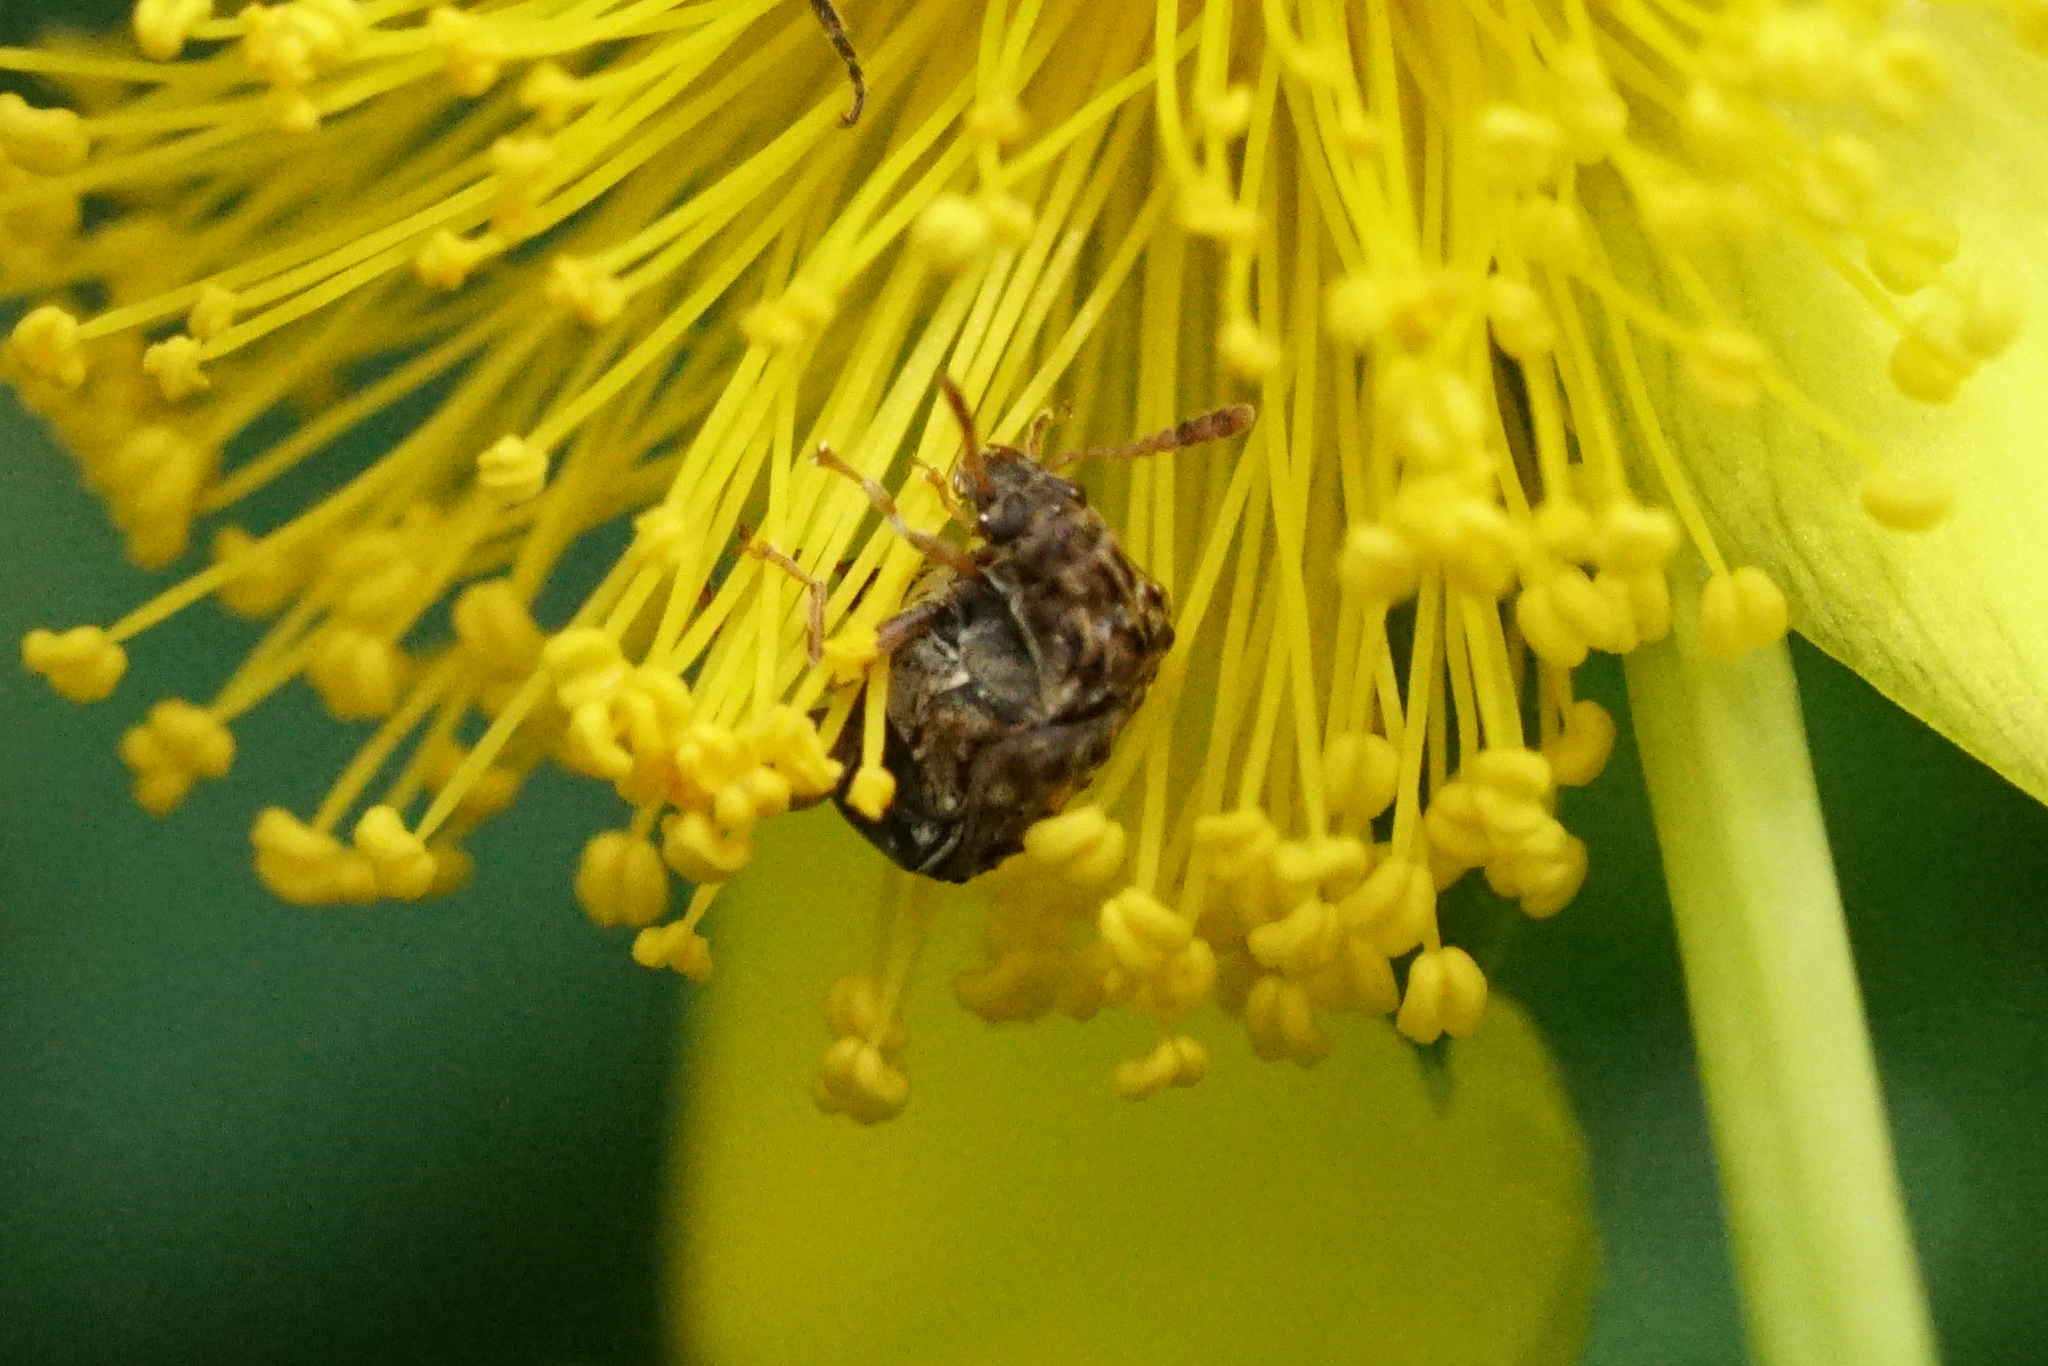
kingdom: Animalia
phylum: Arthropoda
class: Insecta
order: Coleoptera
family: Chrysomelidae
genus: Gibbobruchus
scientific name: Gibbobruchus mimus
